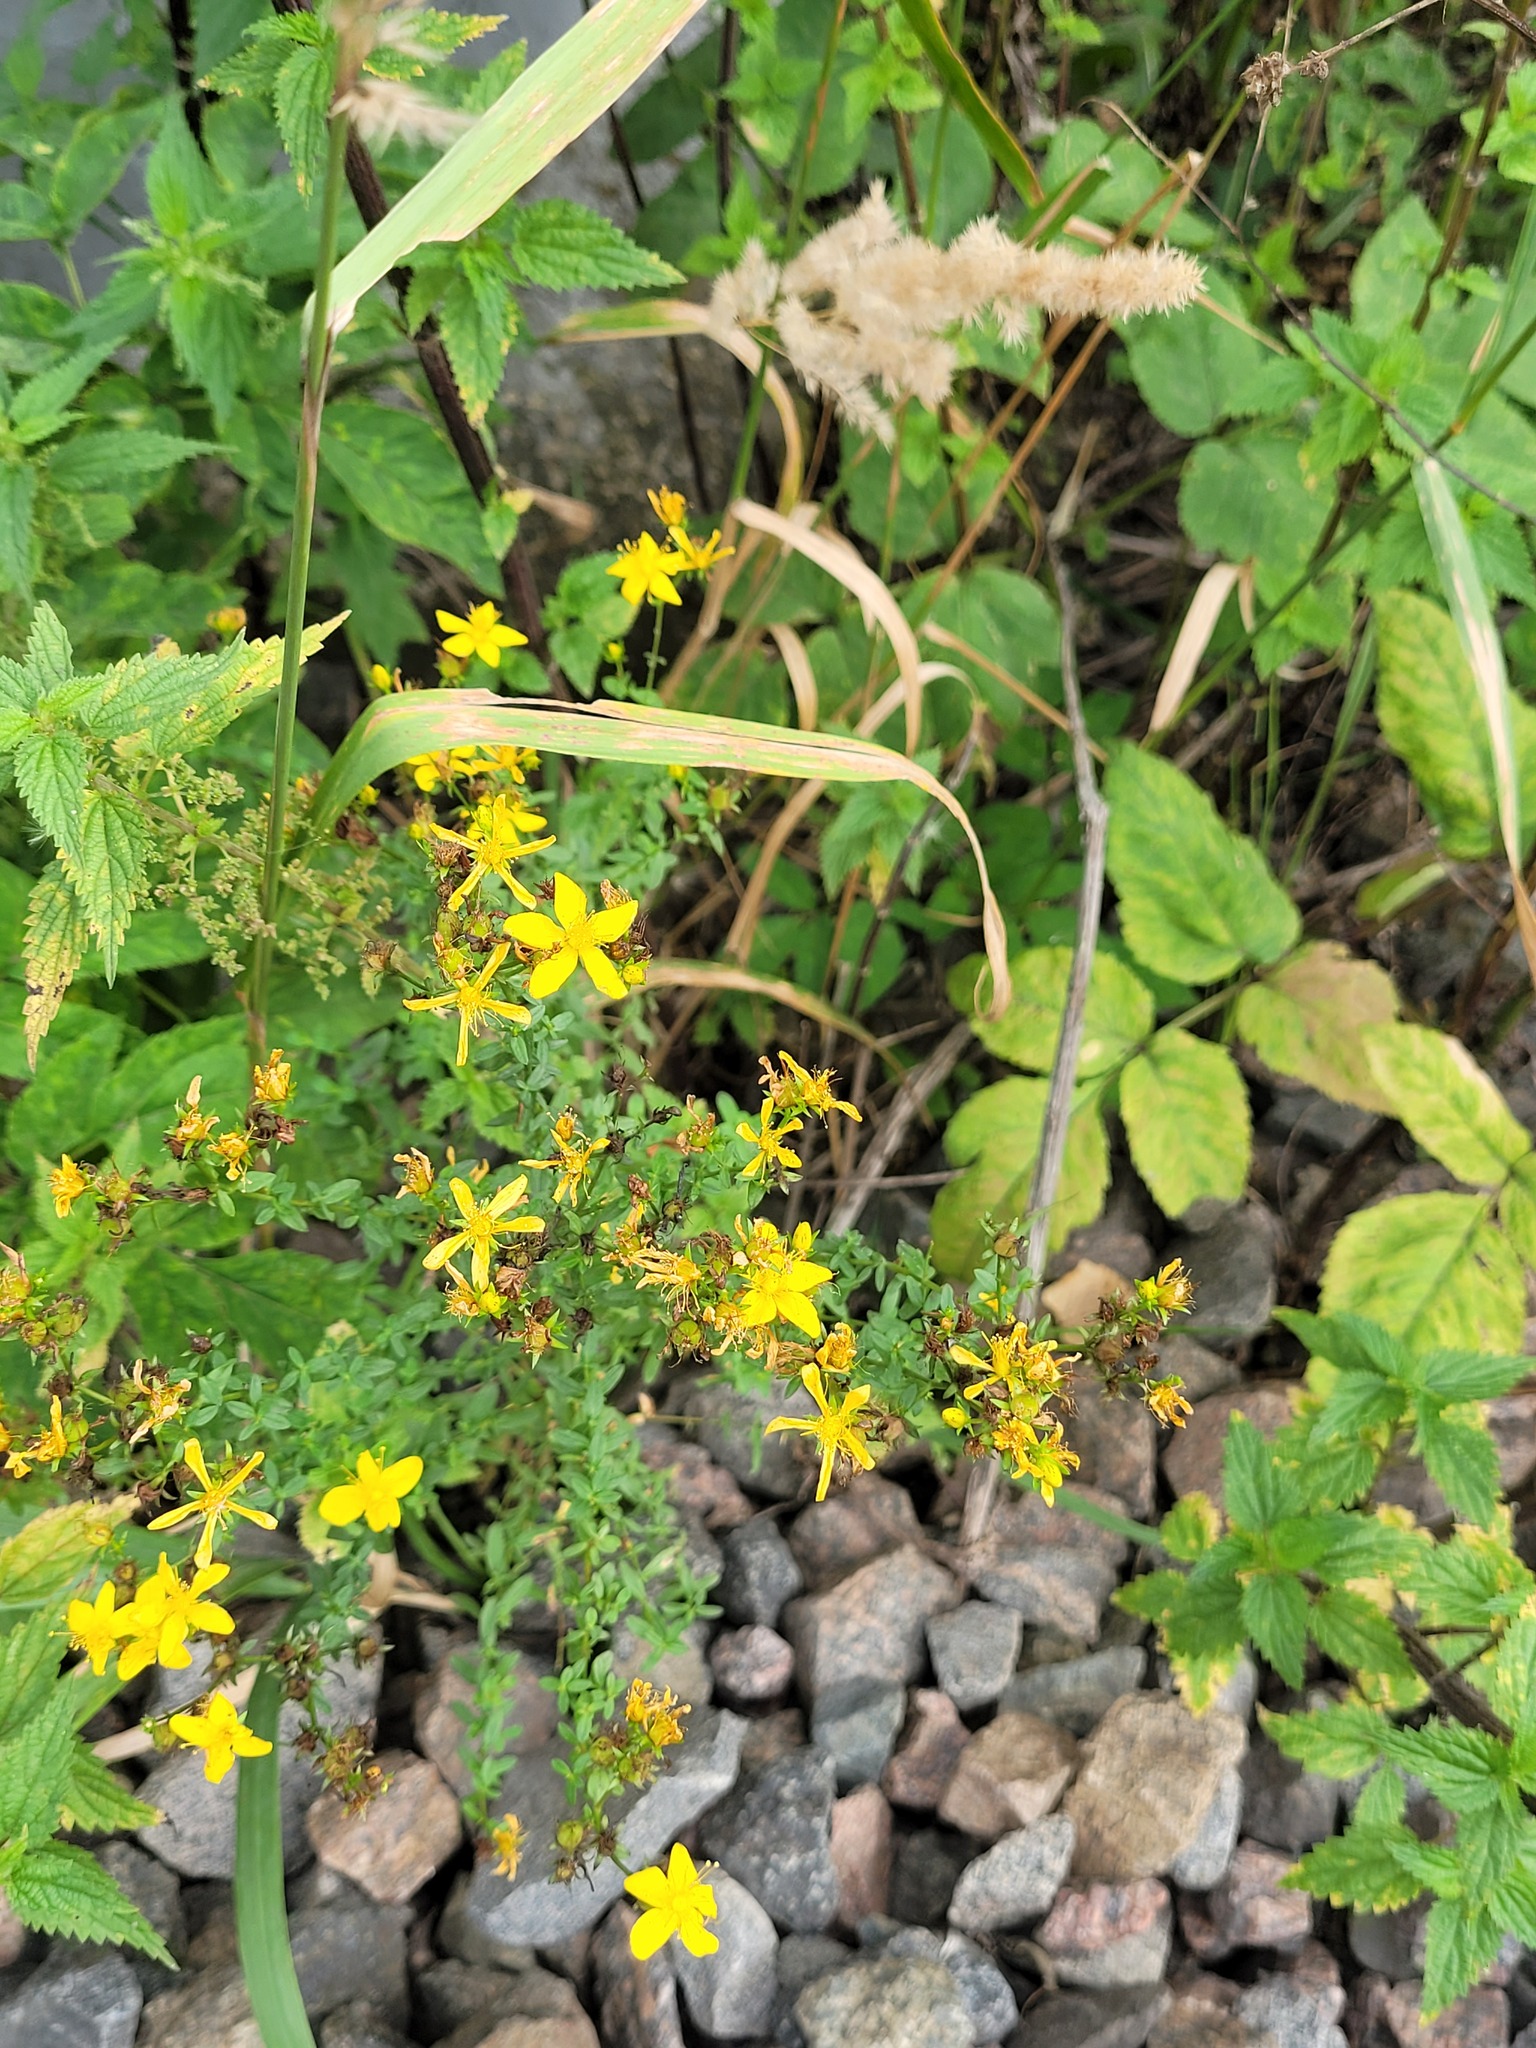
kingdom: Plantae
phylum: Tracheophyta
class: Magnoliopsida
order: Malpighiales
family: Hypericaceae
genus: Hypericum
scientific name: Hypericum perforatum
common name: Common st. johnswort
